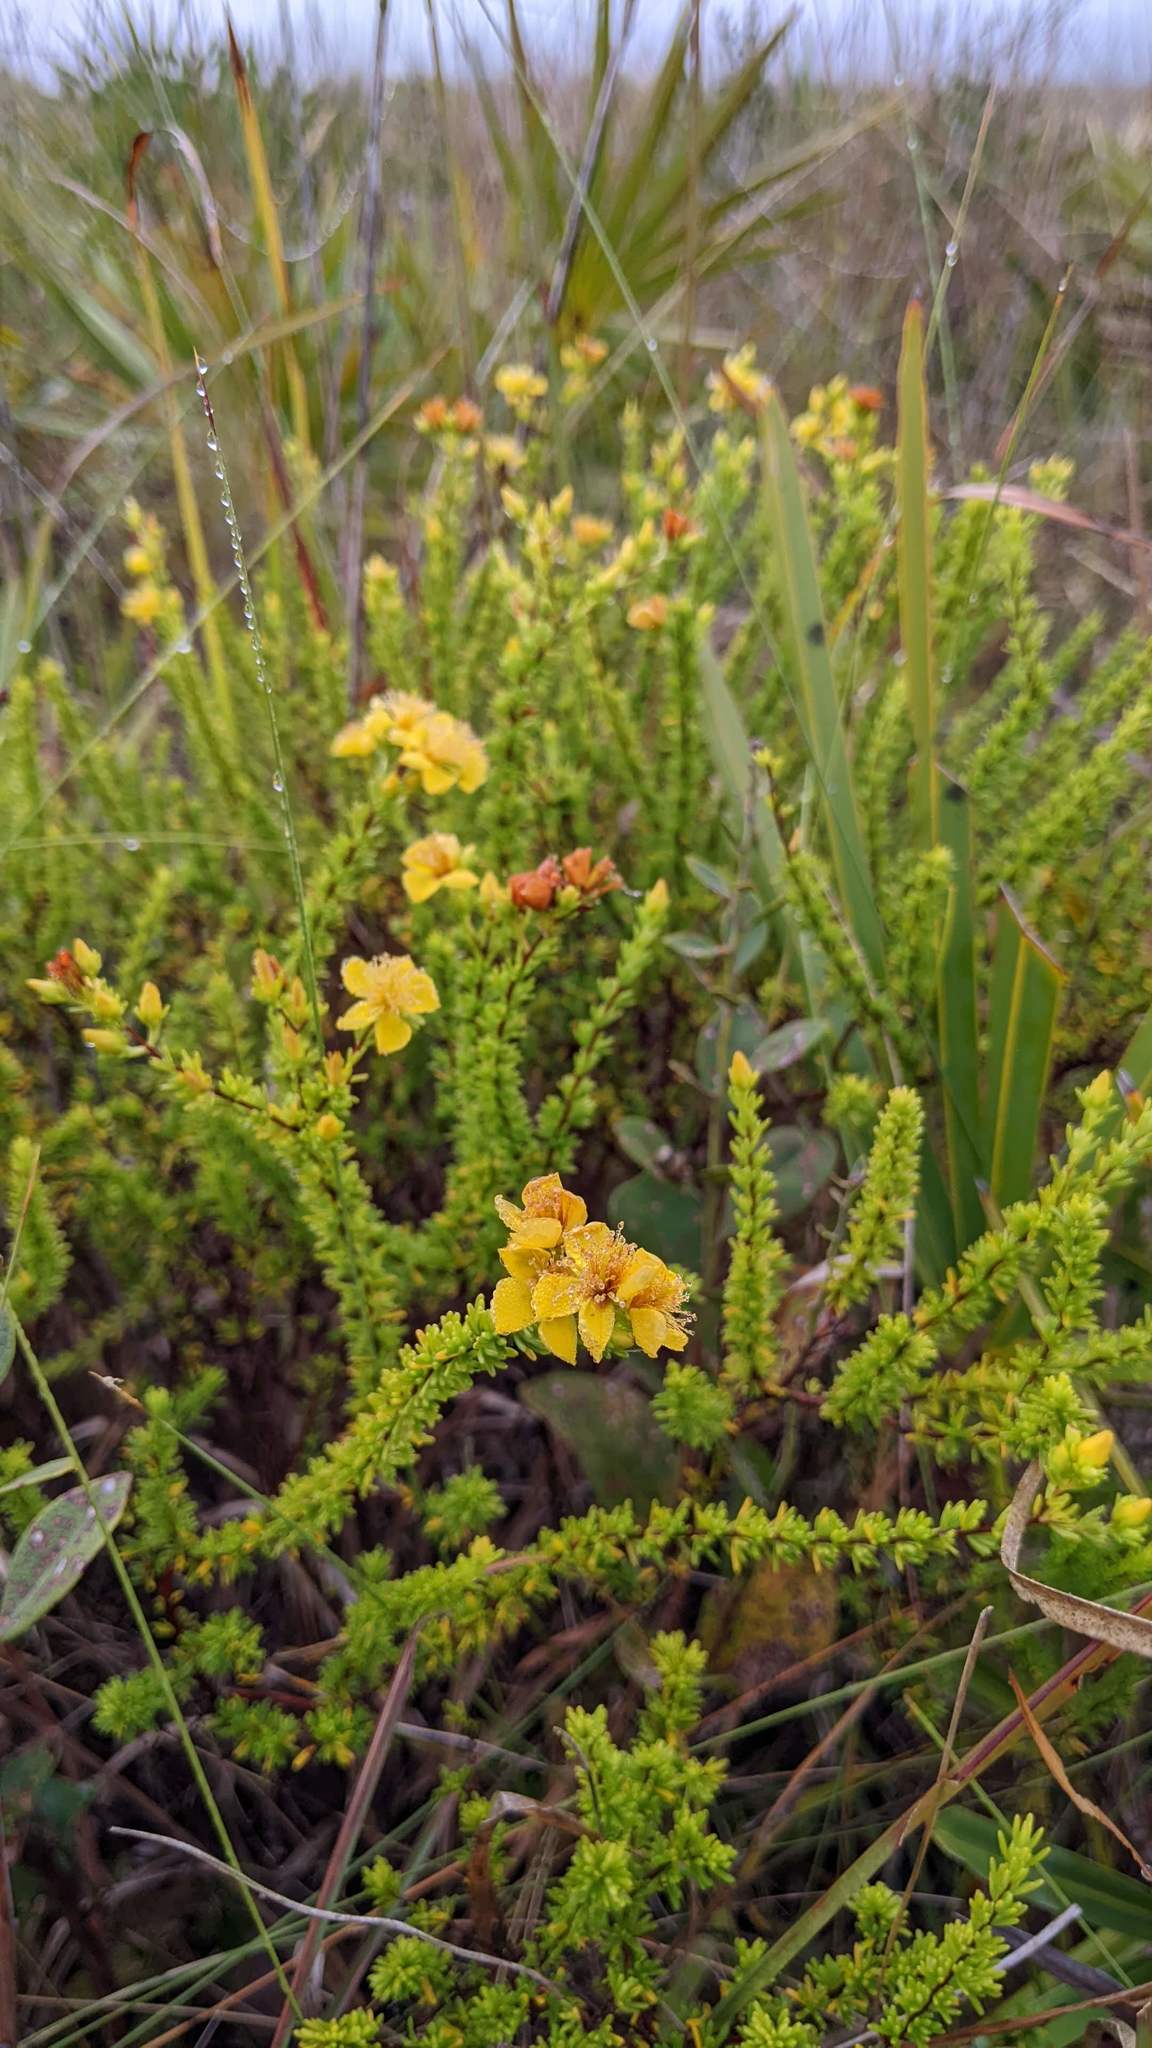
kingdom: Plantae
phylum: Tracheophyta
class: Magnoliopsida
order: Malpighiales
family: Hypericaceae
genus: Hypericum
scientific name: Hypericum tenuifolium
